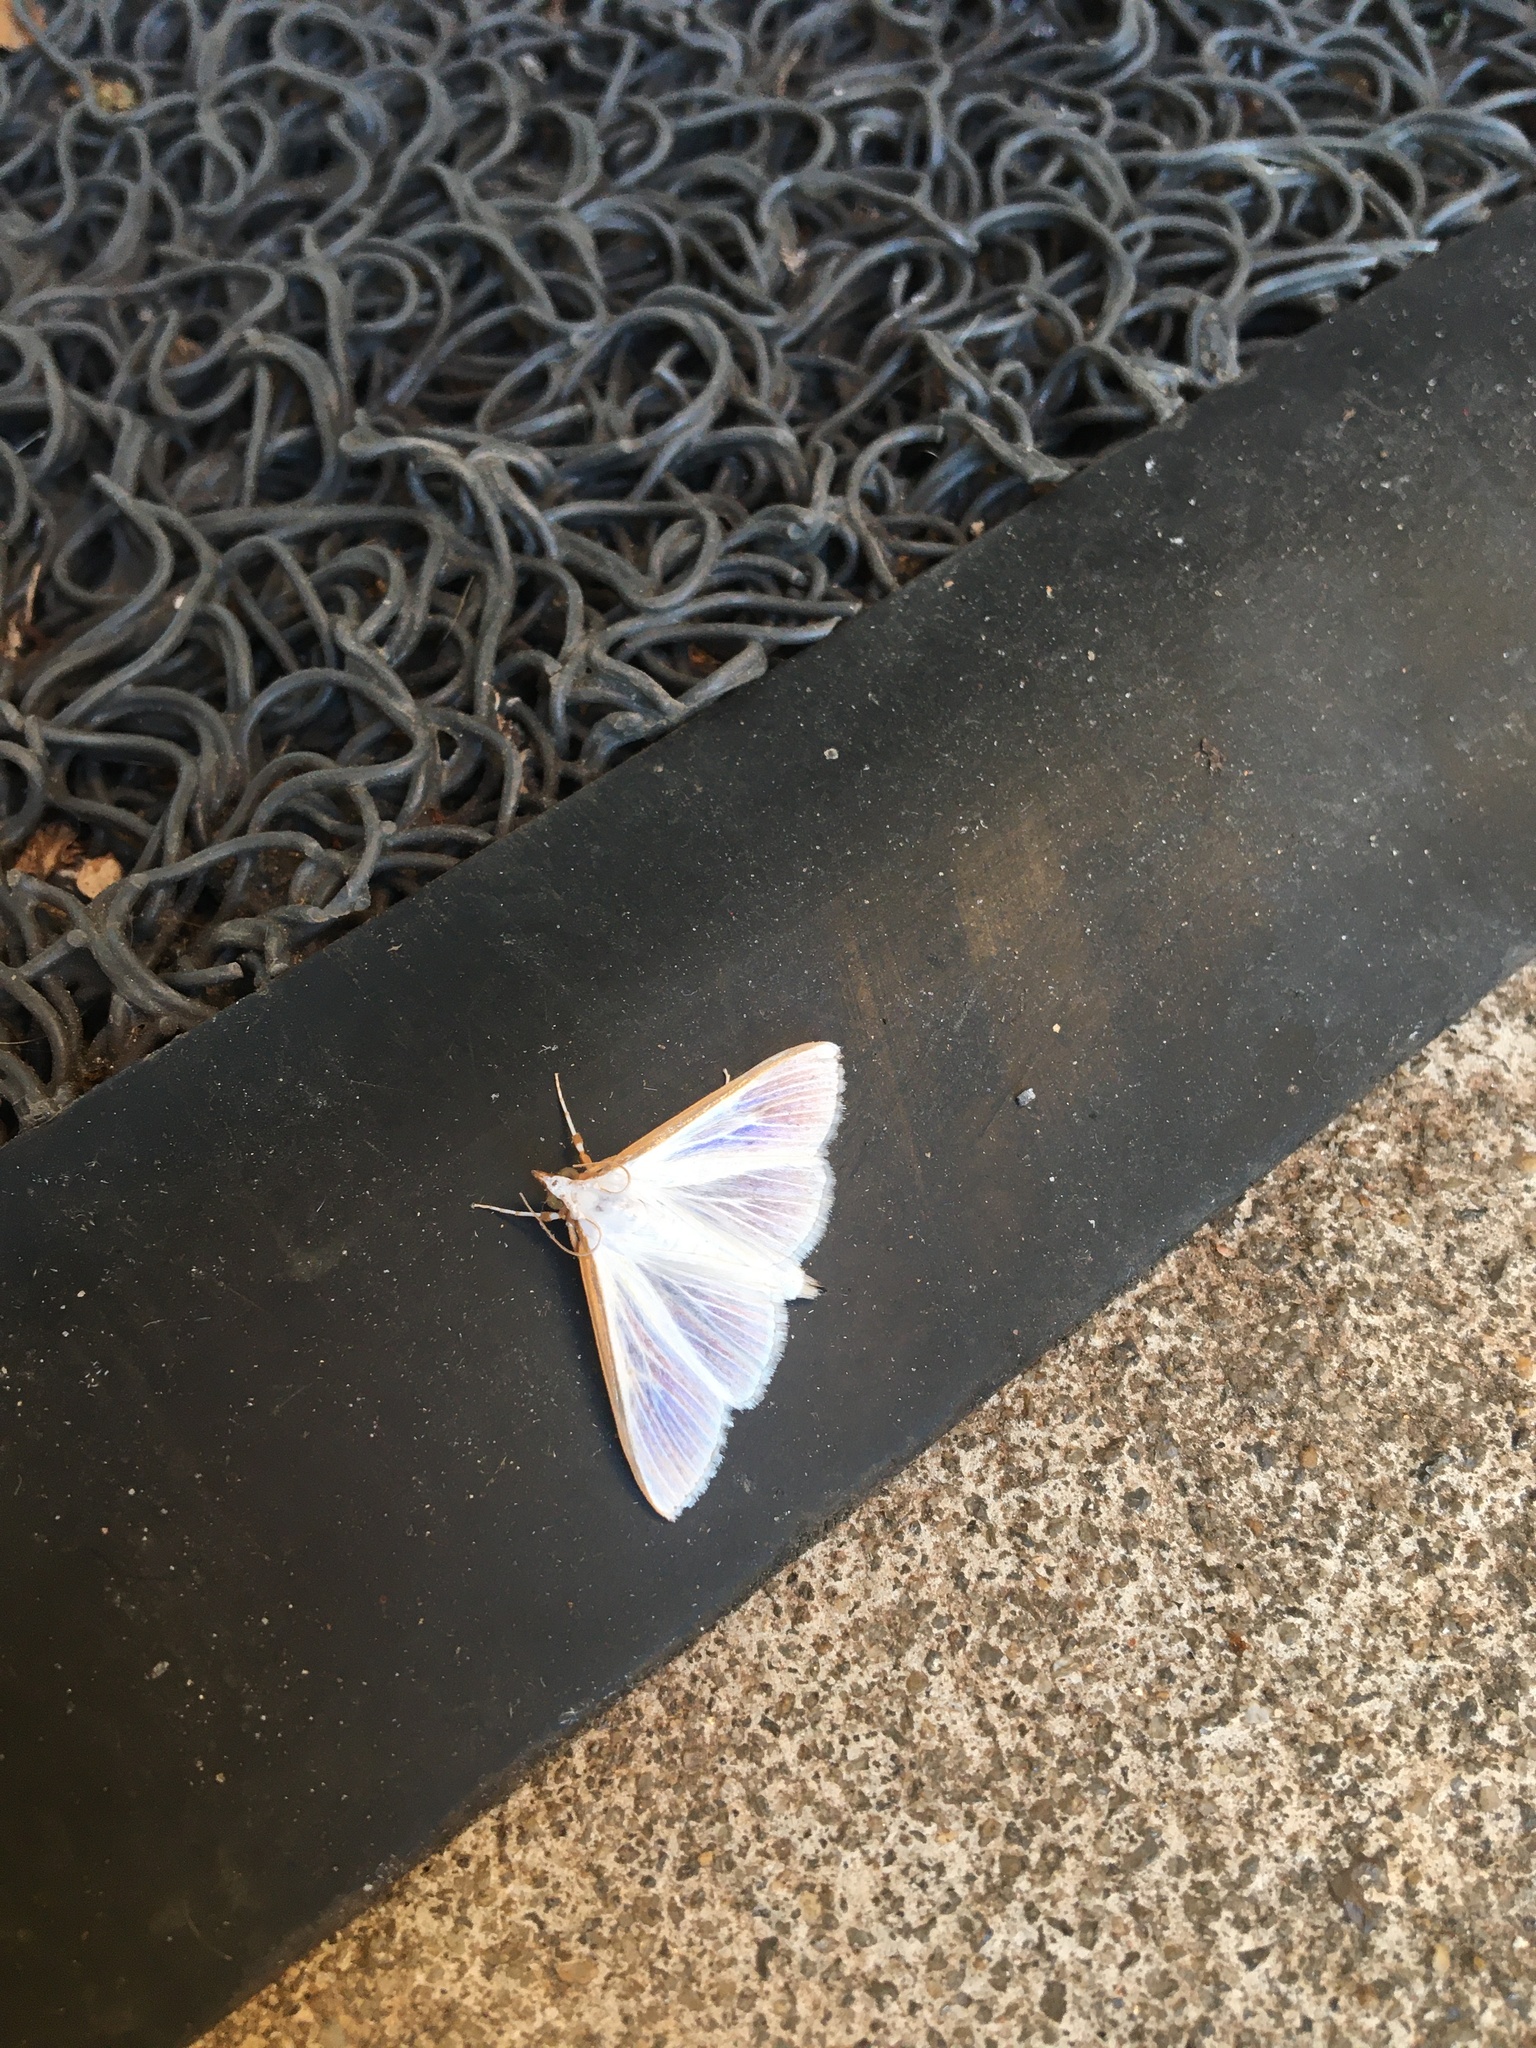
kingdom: Animalia
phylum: Arthropoda
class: Insecta
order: Lepidoptera
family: Crambidae
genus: Diaphania
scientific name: Diaphania costata
